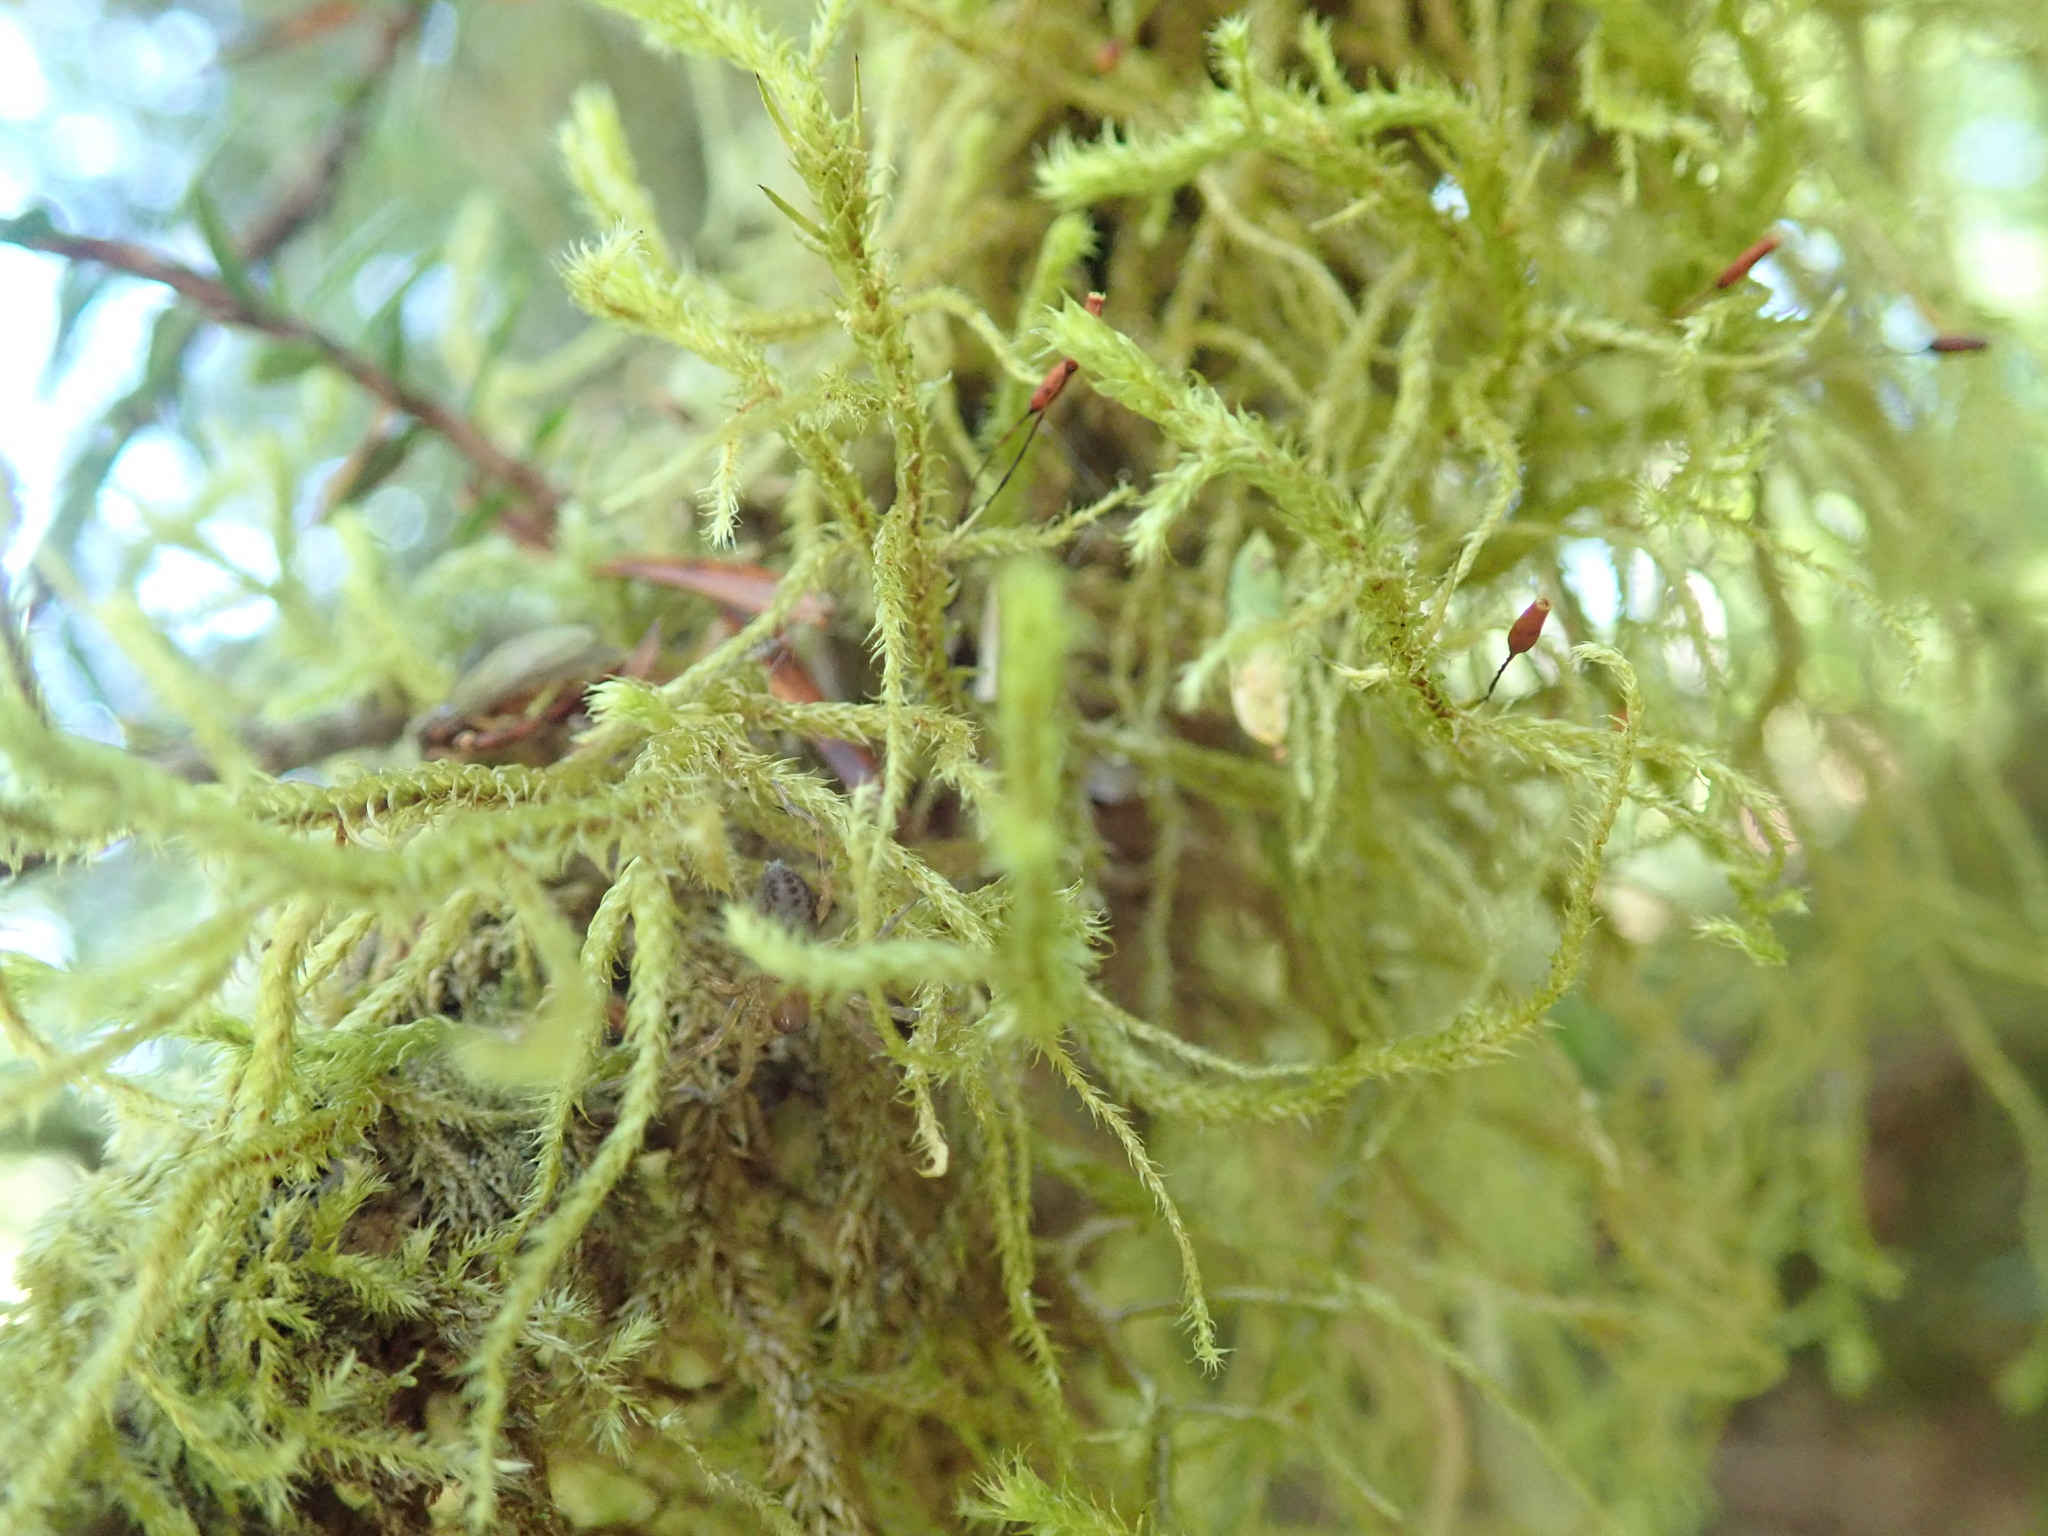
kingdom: Plantae
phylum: Bryophyta
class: Bryopsida
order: Hypnales
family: Antitrichiaceae
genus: Antitrichia
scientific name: Antitrichia curtipendula
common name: Pendulous wing-moss
